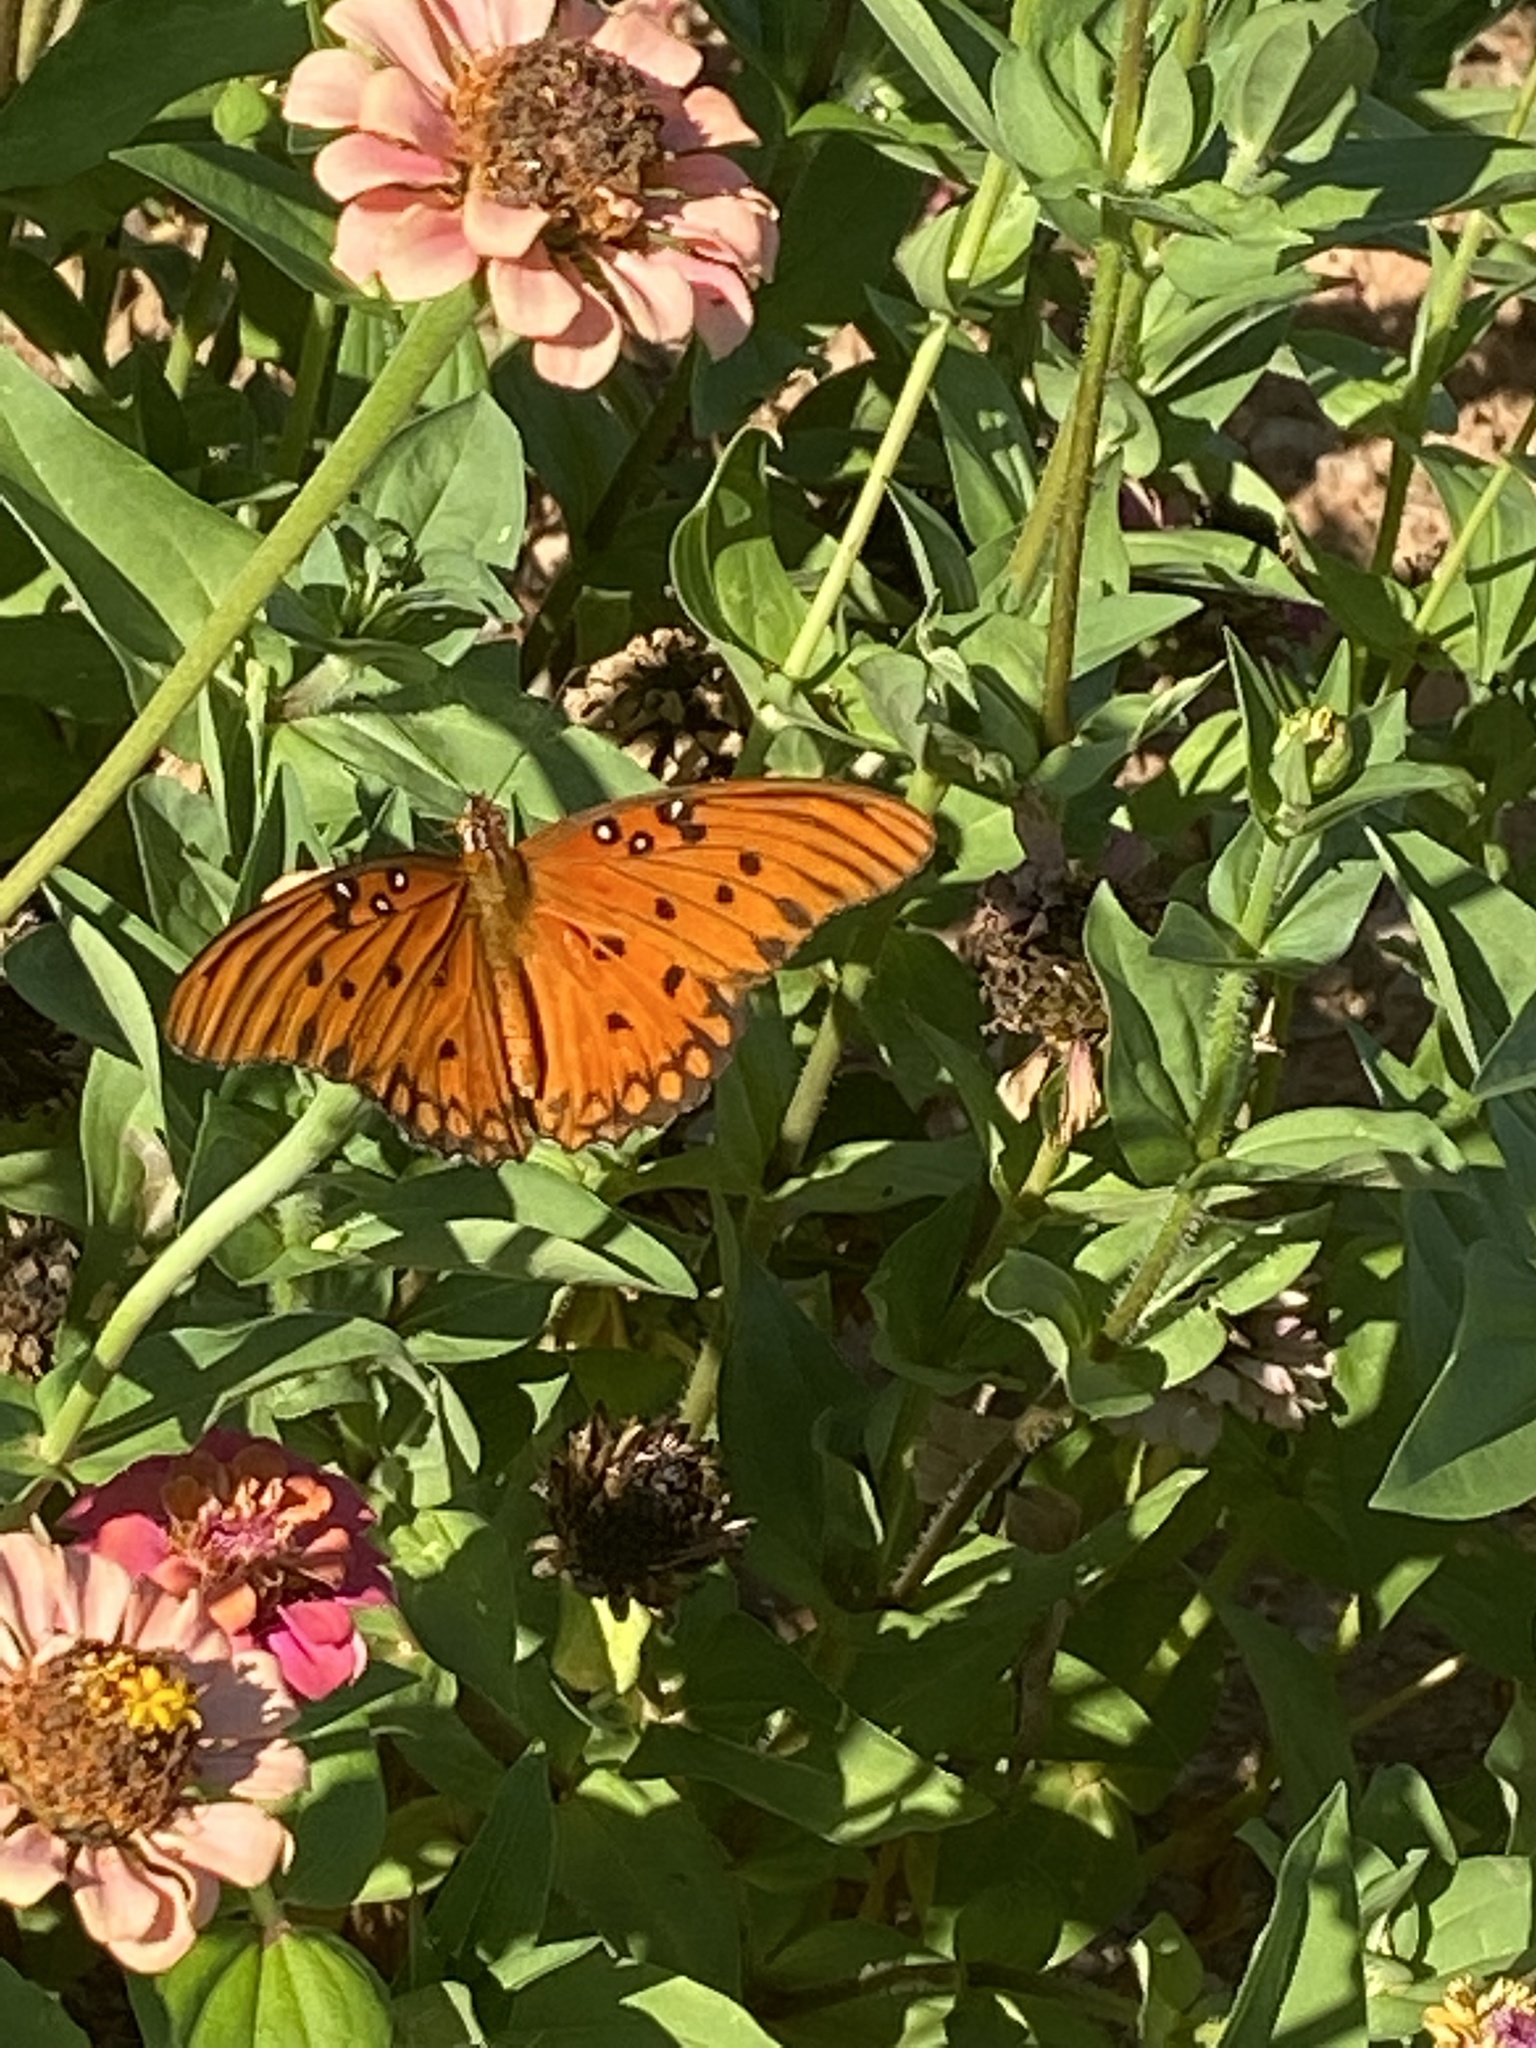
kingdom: Animalia
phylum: Arthropoda
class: Insecta
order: Lepidoptera
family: Nymphalidae
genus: Dione
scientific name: Dione vanillae
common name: Gulf fritillary
